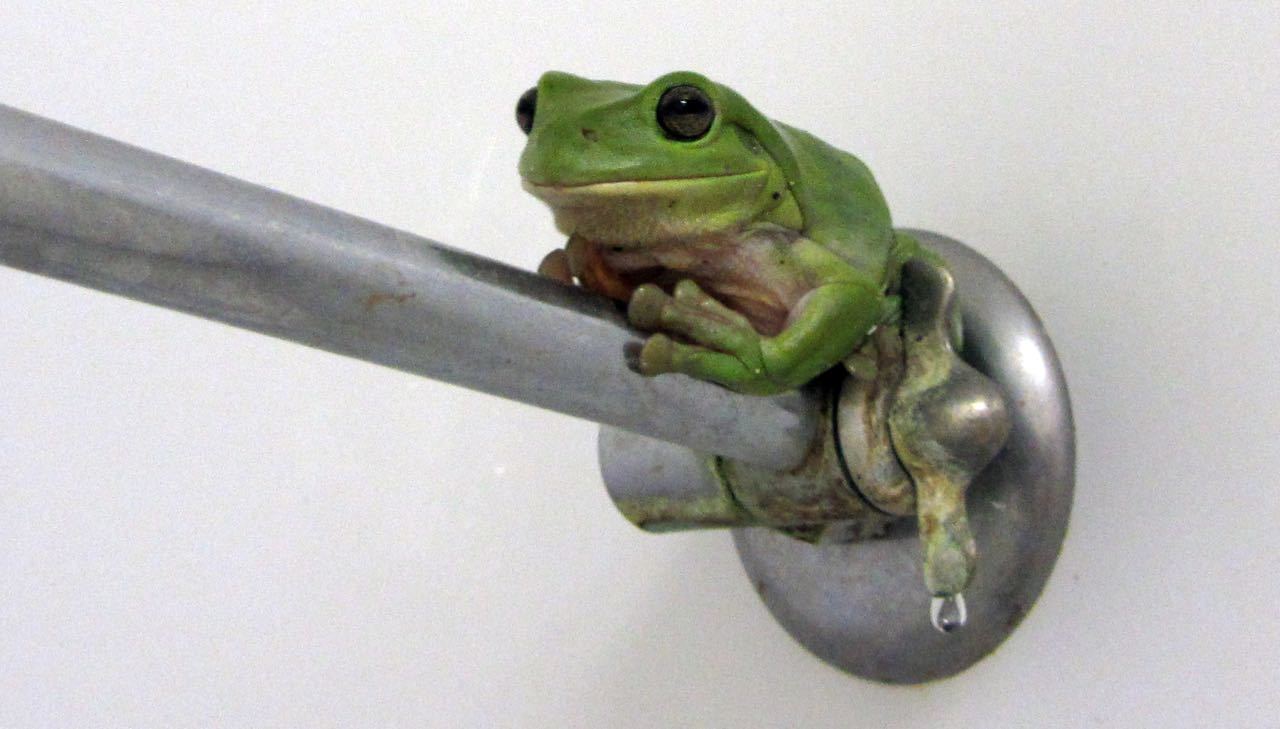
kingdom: Animalia
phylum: Chordata
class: Amphibia
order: Anura
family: Pelodryadidae
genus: Ranoidea
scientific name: Ranoidea caerulea
